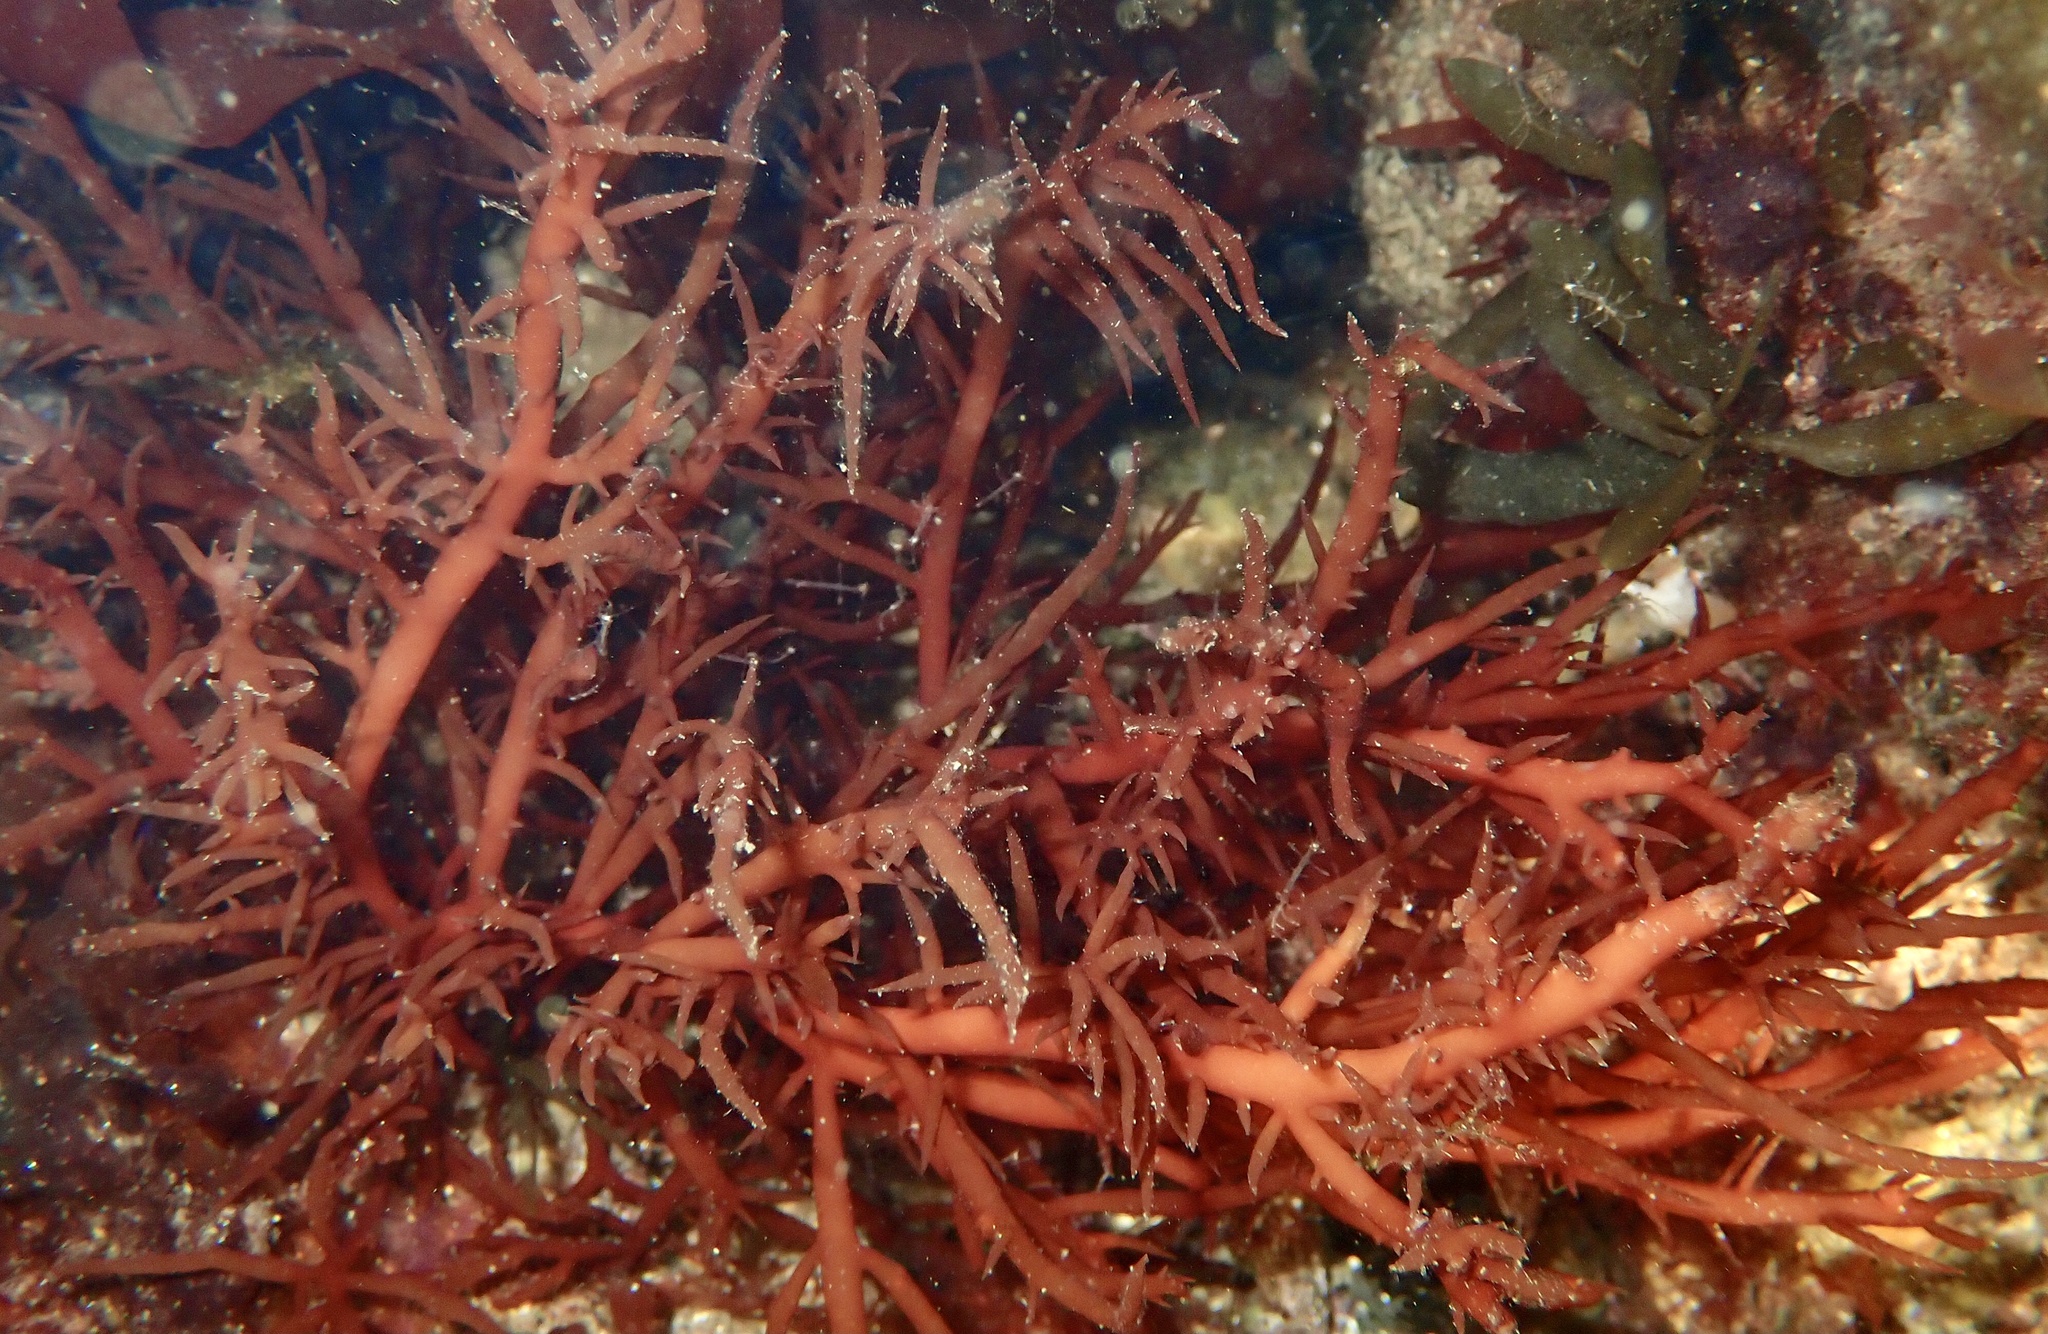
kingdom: Plantae
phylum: Rhodophyta
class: Florideophyceae
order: Gigartinales
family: Solieriaceae
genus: Agardhiella
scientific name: Agardhiella subulata
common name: Agardh's red weed
